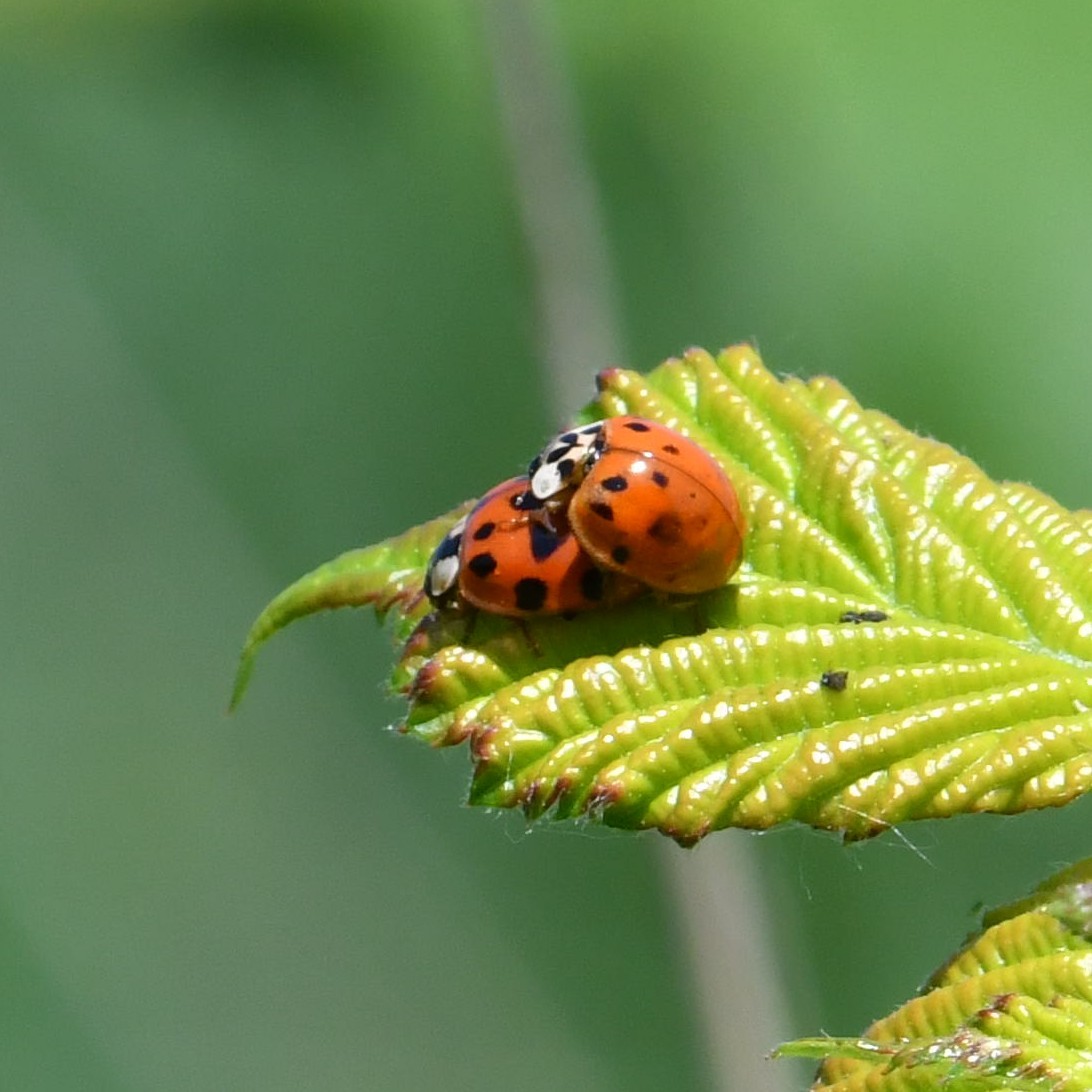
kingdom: Animalia
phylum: Arthropoda
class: Insecta
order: Coleoptera
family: Coccinellidae
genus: Harmonia
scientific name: Harmonia axyridis
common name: Harlequin ladybird
